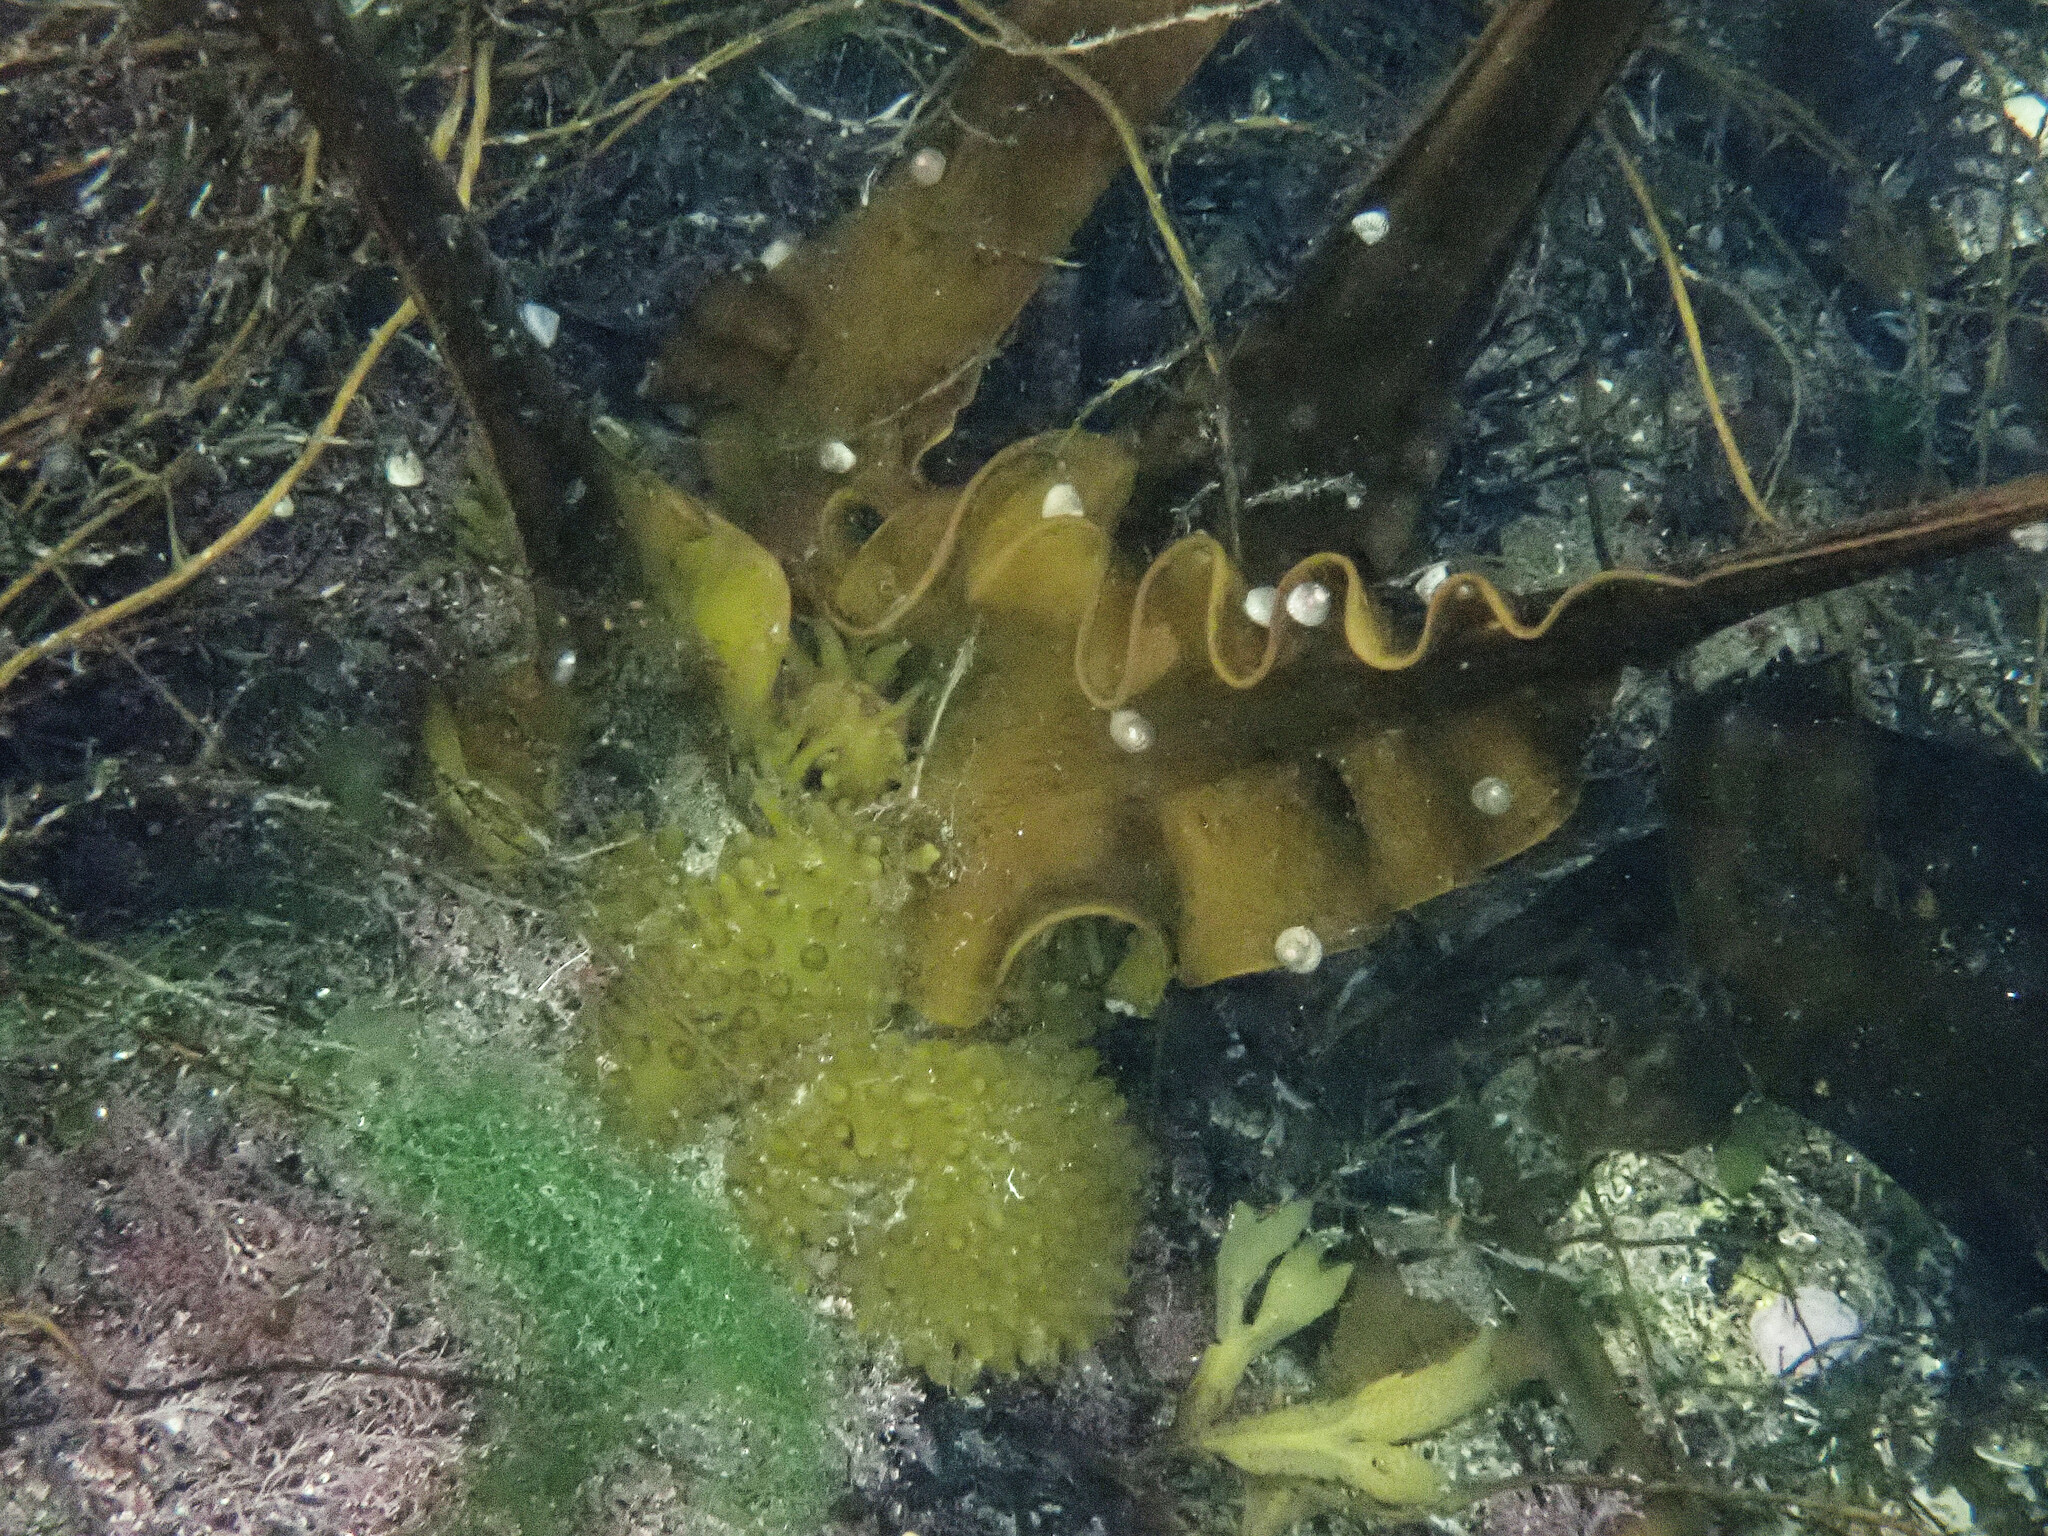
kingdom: Chromista
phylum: Ochrophyta
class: Phaeophyceae
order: Tilopteridales
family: Phyllariaceae
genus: Saccorhiza
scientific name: Saccorhiza polyschides
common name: Furbelows
